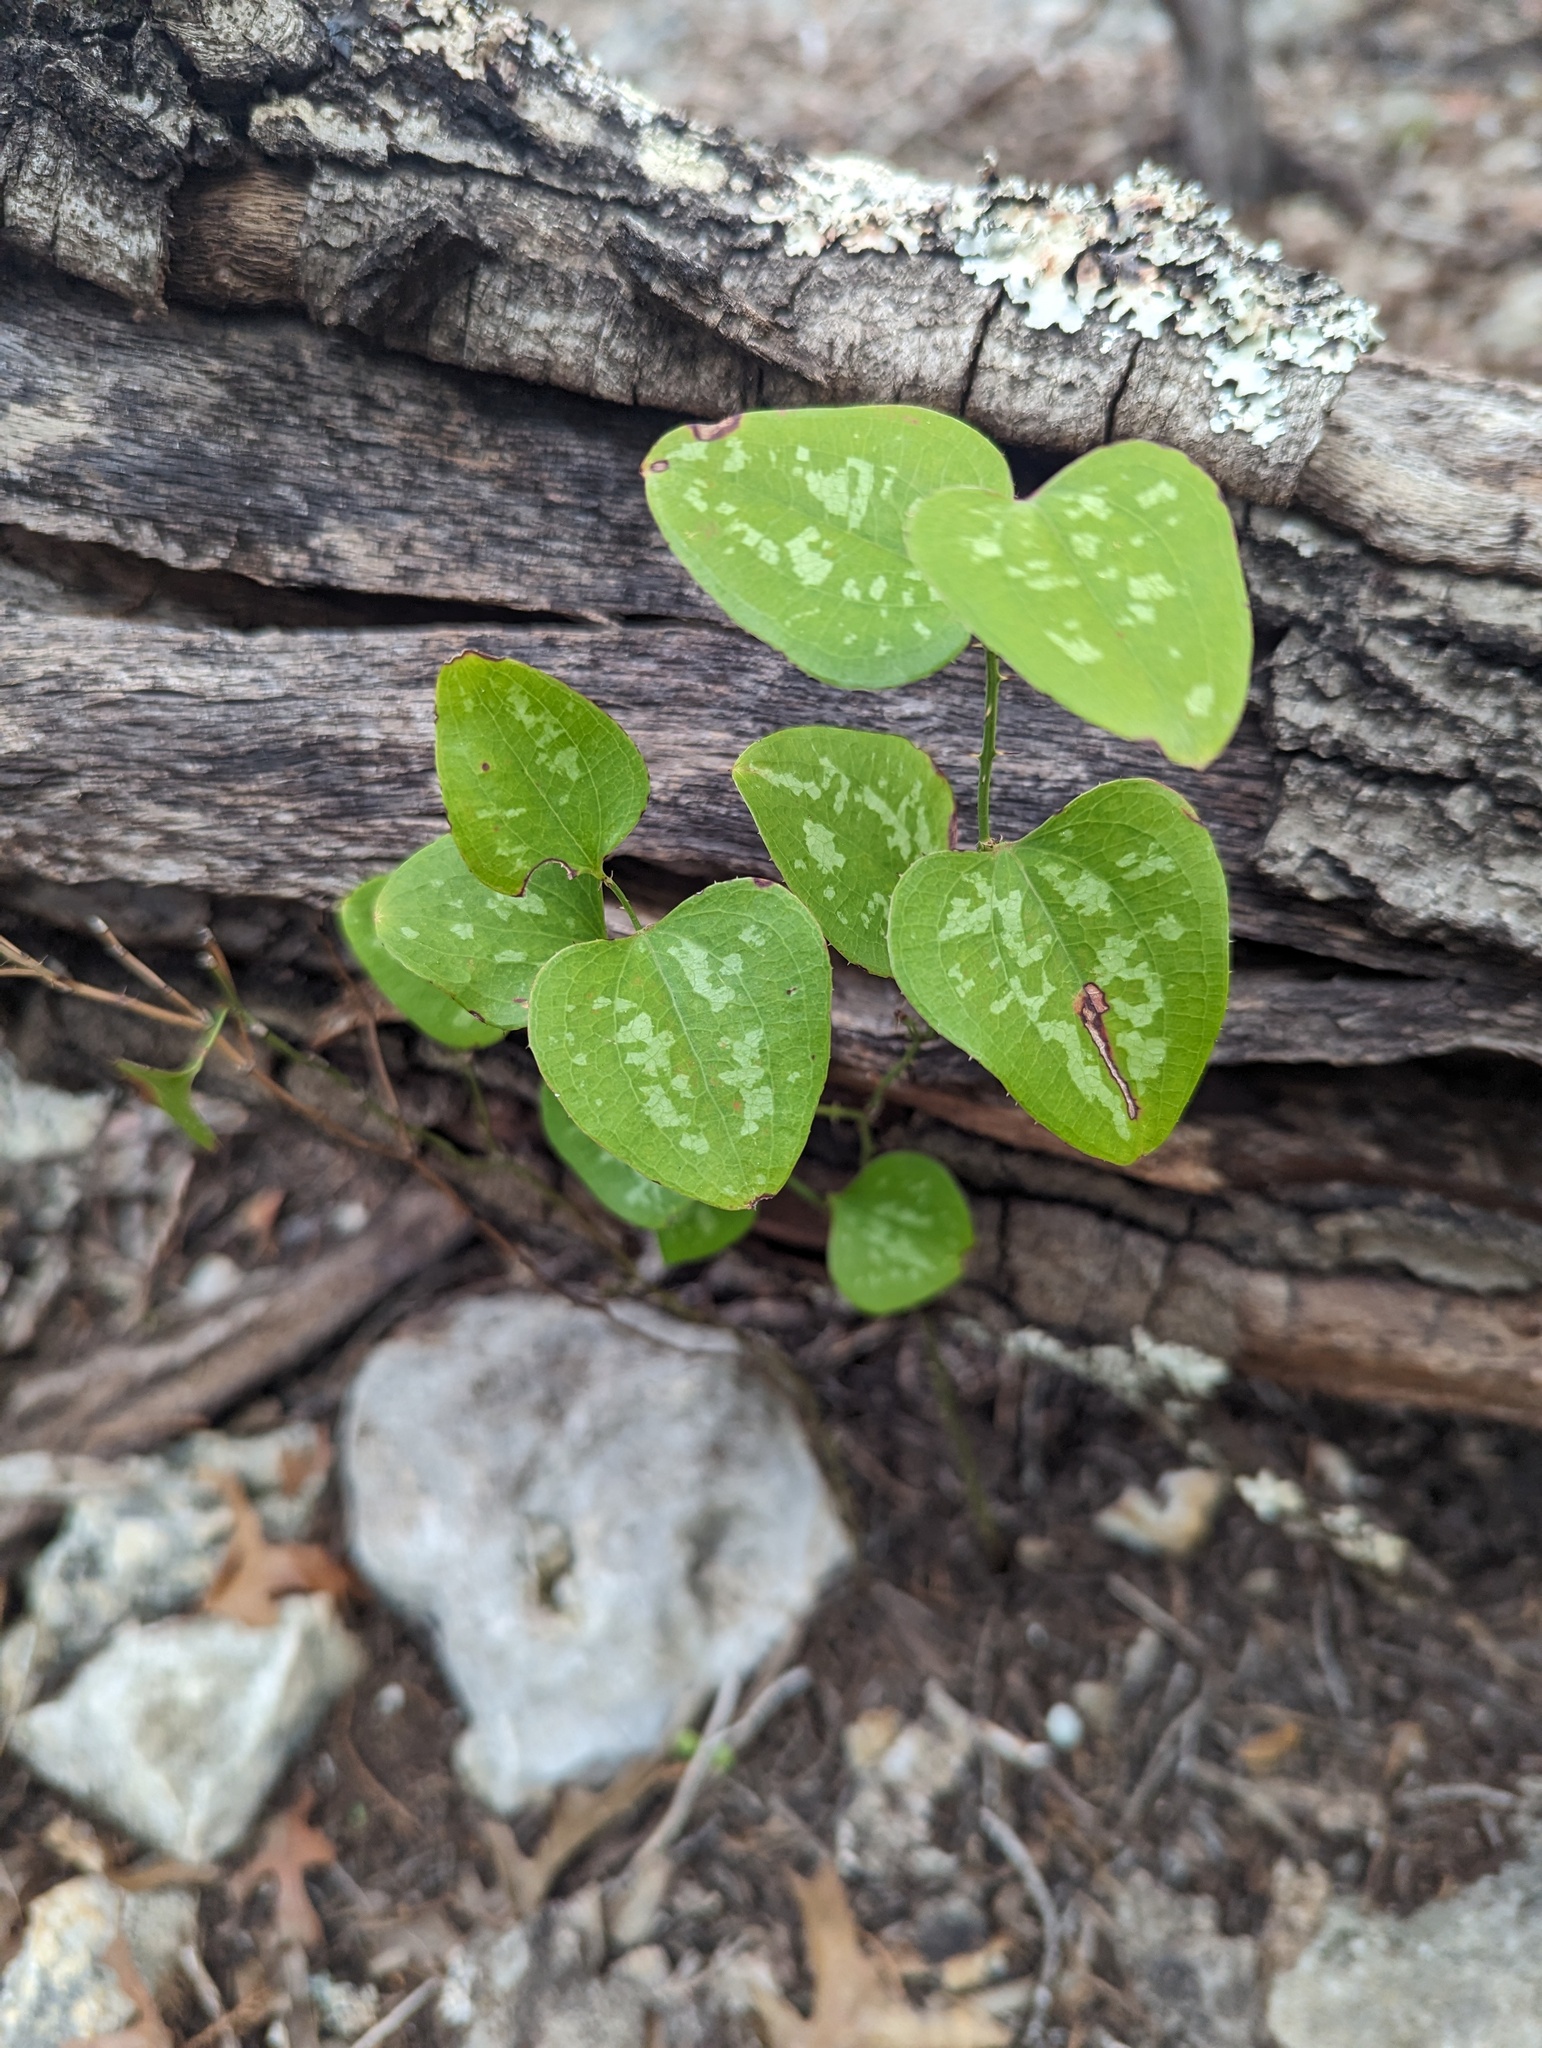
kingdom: Plantae
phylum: Tracheophyta
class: Liliopsida
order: Liliales
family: Smilacaceae
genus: Smilax
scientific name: Smilax bona-nox
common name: Catbrier
